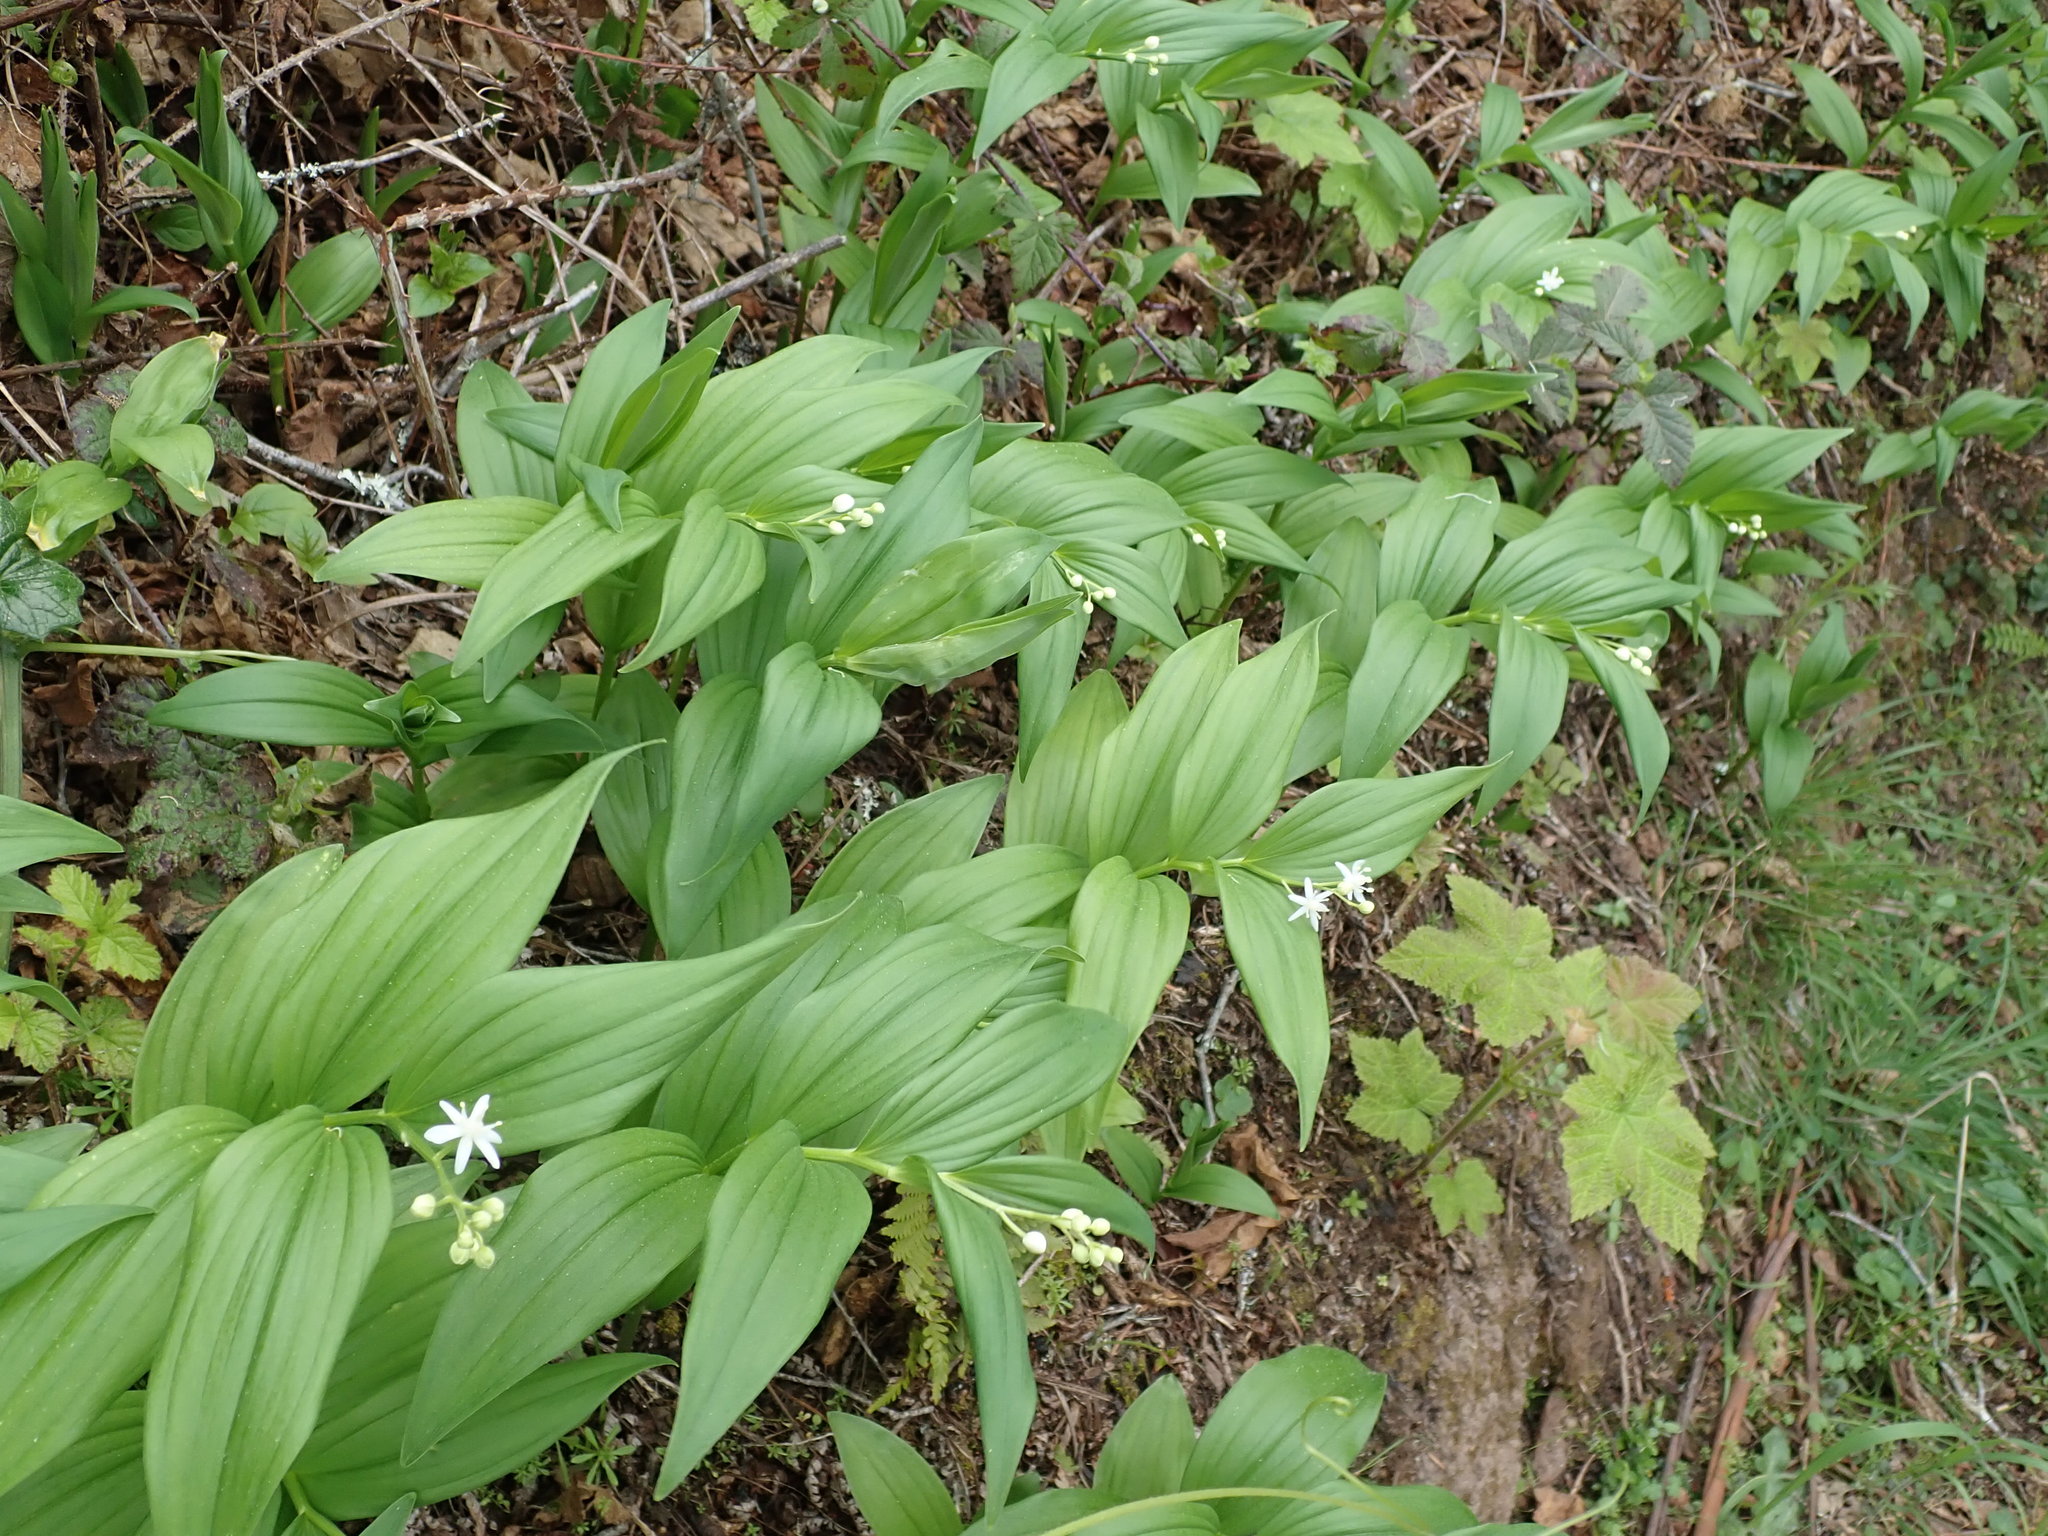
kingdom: Plantae
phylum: Tracheophyta
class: Liliopsida
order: Asparagales
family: Asparagaceae
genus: Maianthemum
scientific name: Maianthemum stellatum
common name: Little false solomon's seal
